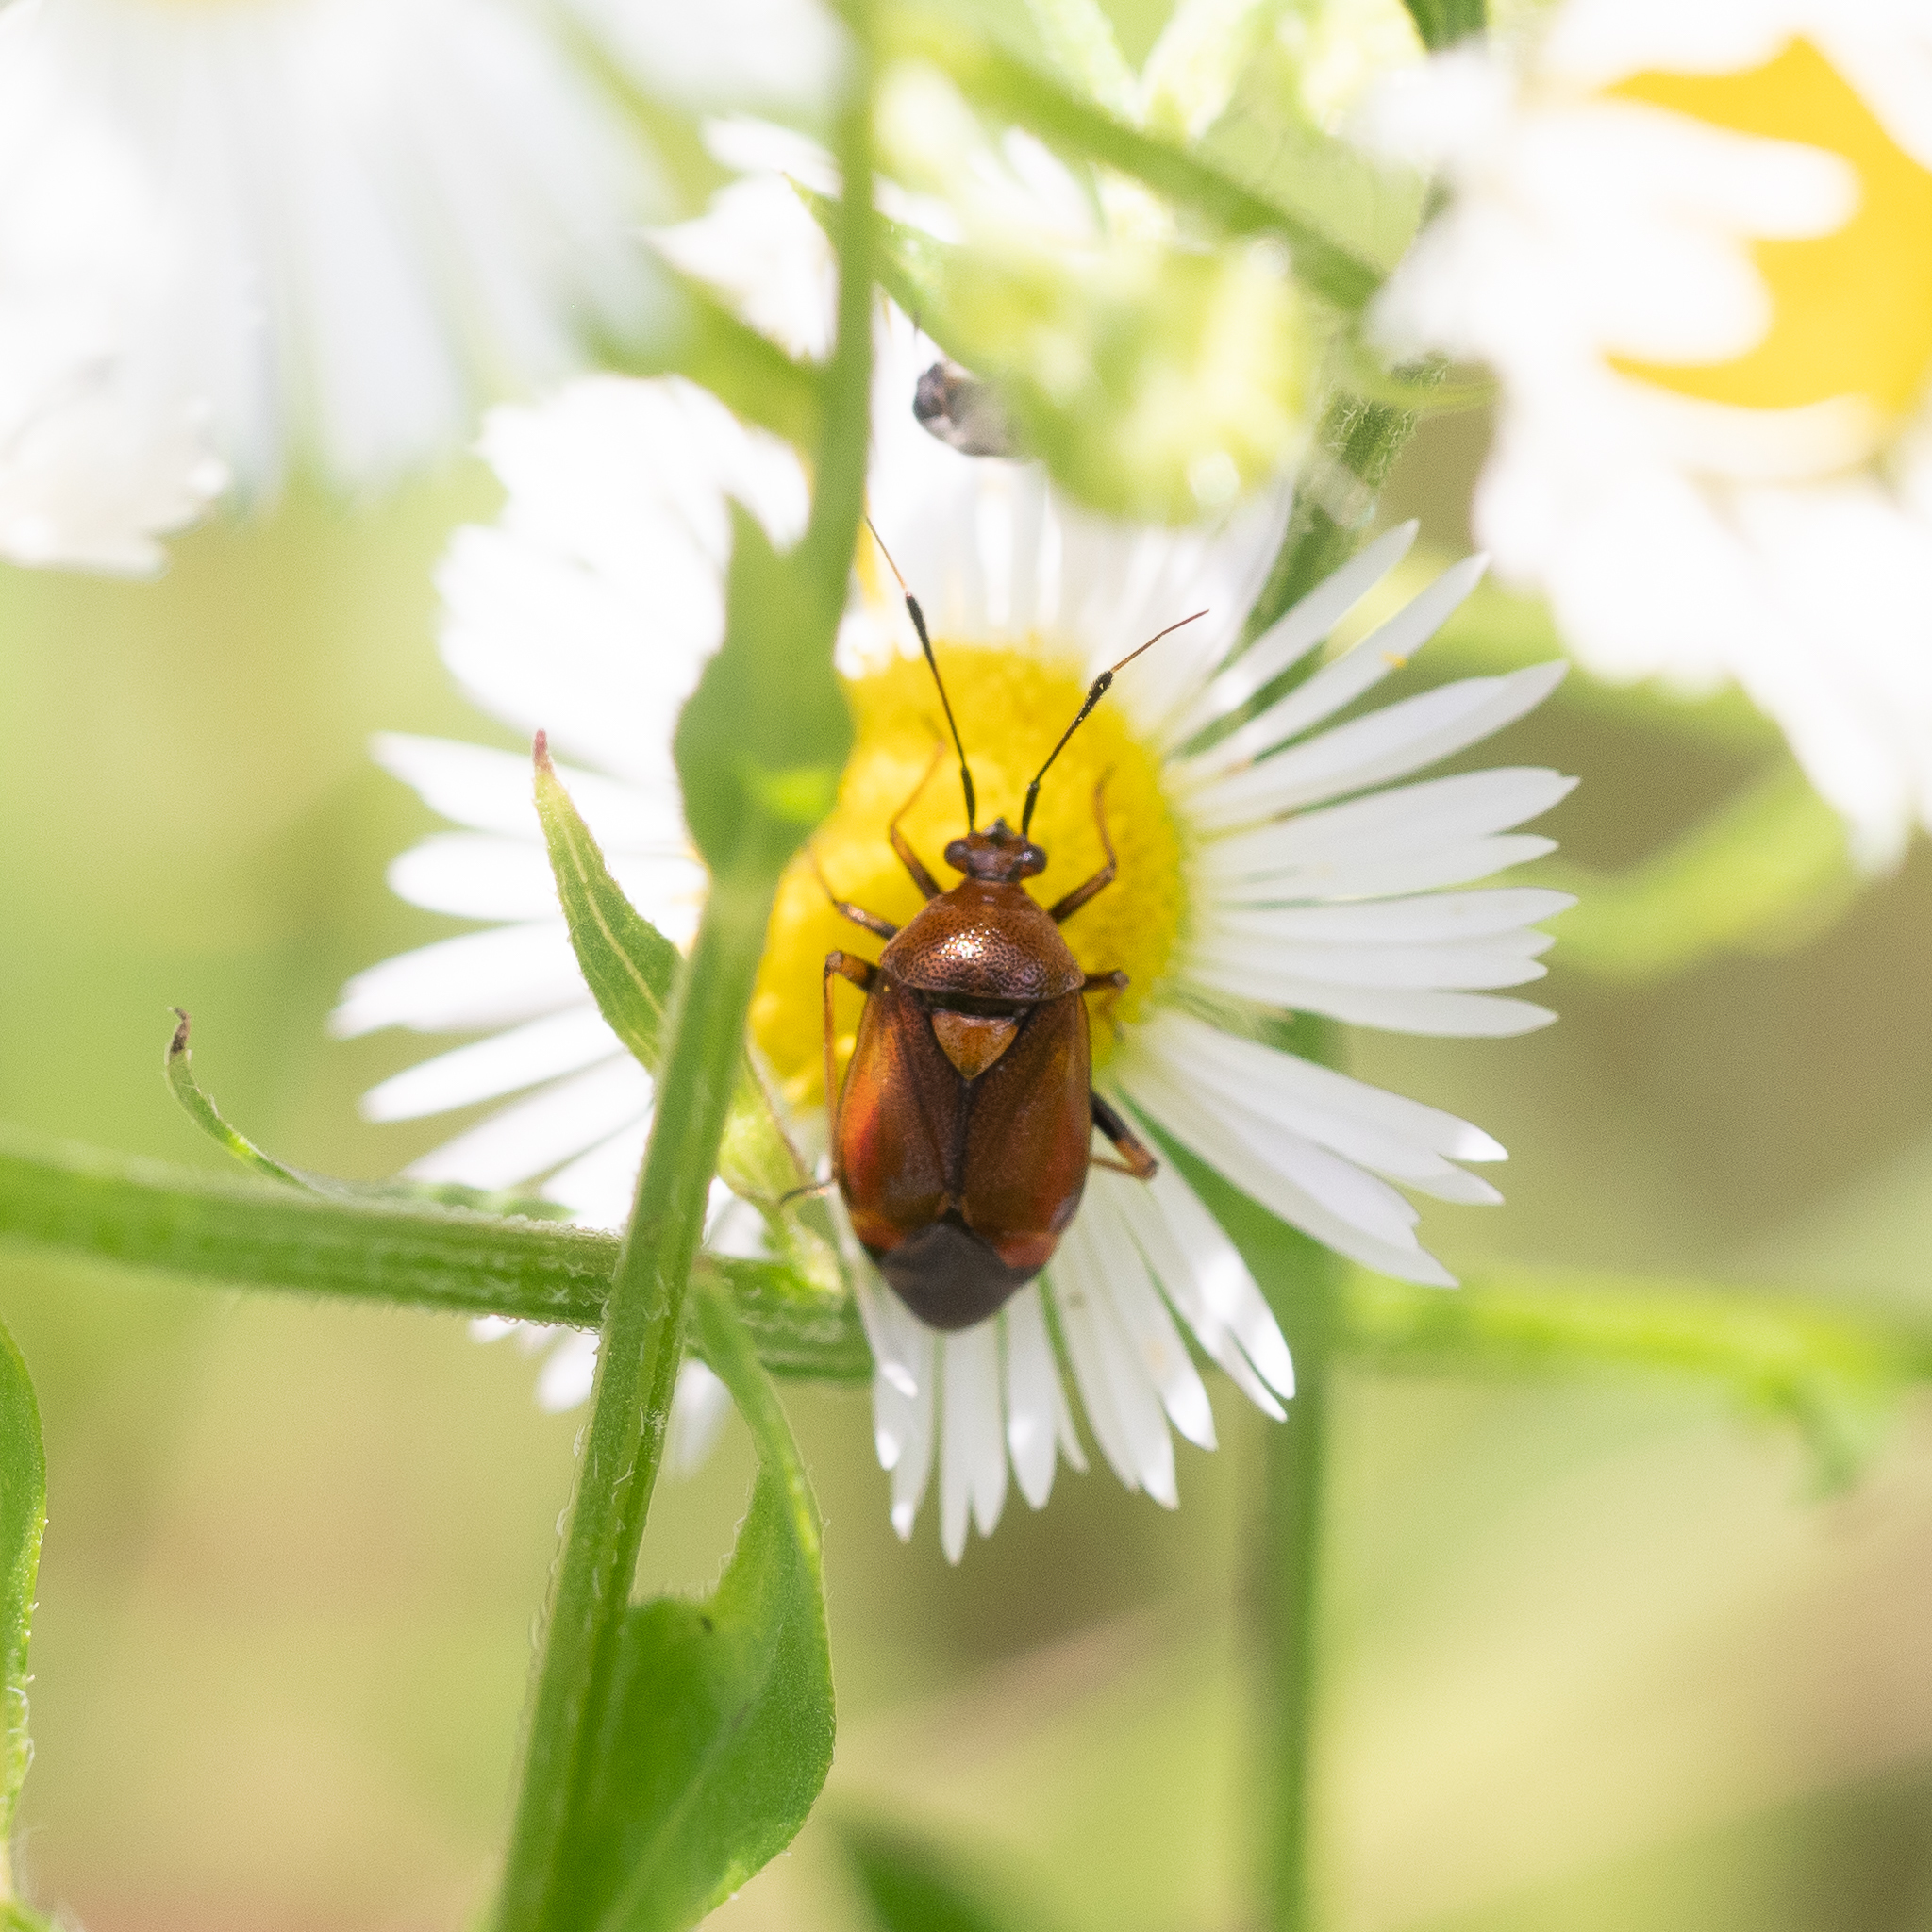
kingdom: Animalia
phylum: Arthropoda
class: Insecta
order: Hemiptera
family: Miridae
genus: Deraeocoris
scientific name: Deraeocoris ruber
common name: Plant bug
